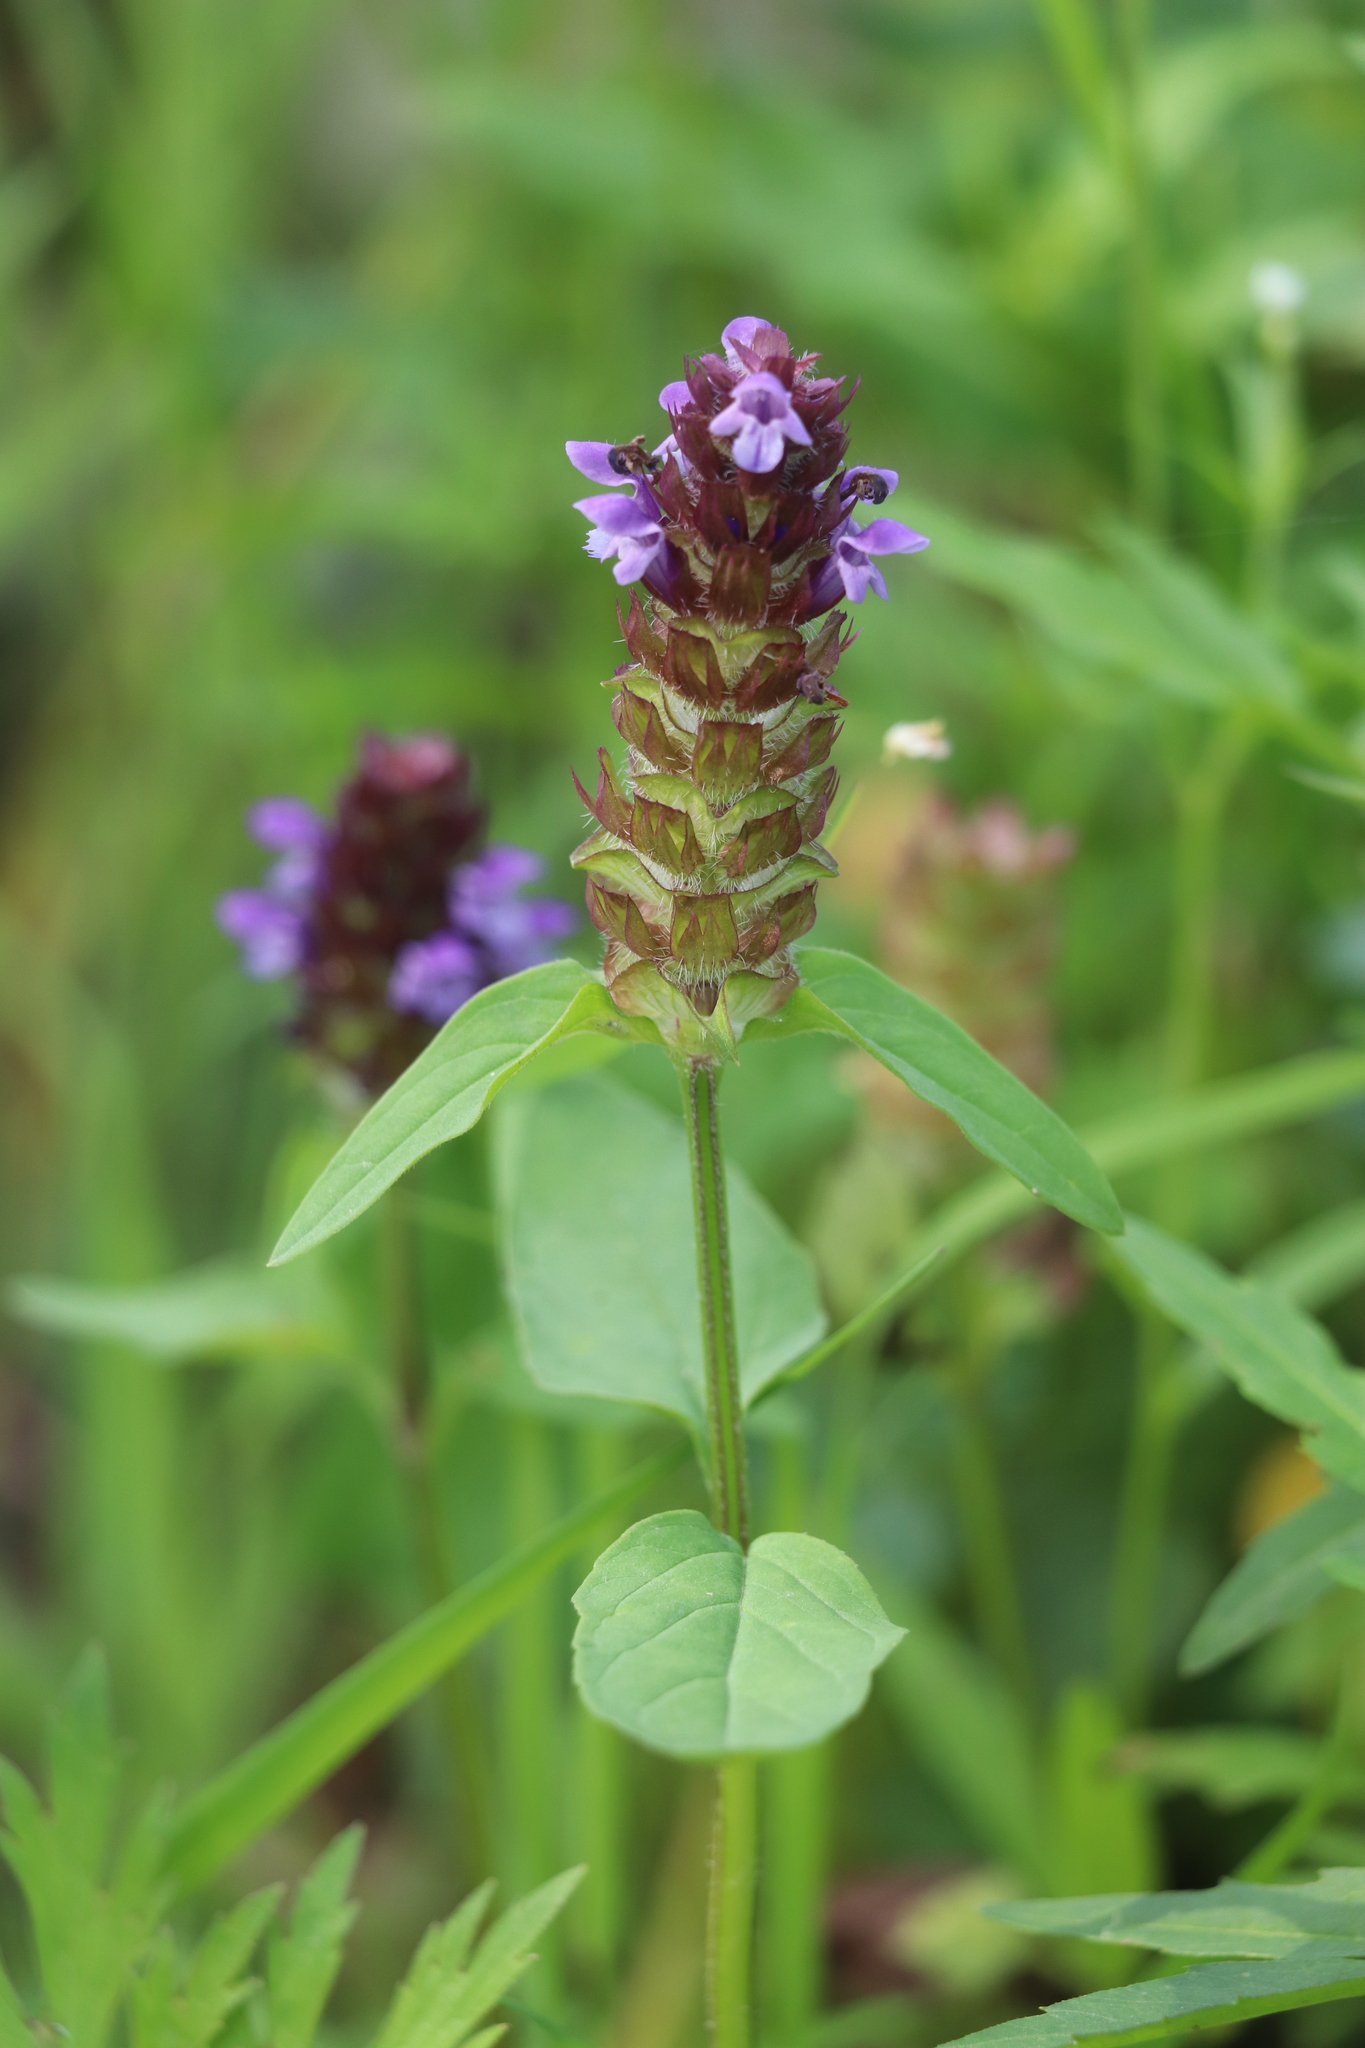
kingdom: Plantae
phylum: Tracheophyta
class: Magnoliopsida
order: Lamiales
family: Lamiaceae
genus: Prunella
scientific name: Prunella vulgaris
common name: Heal-all
